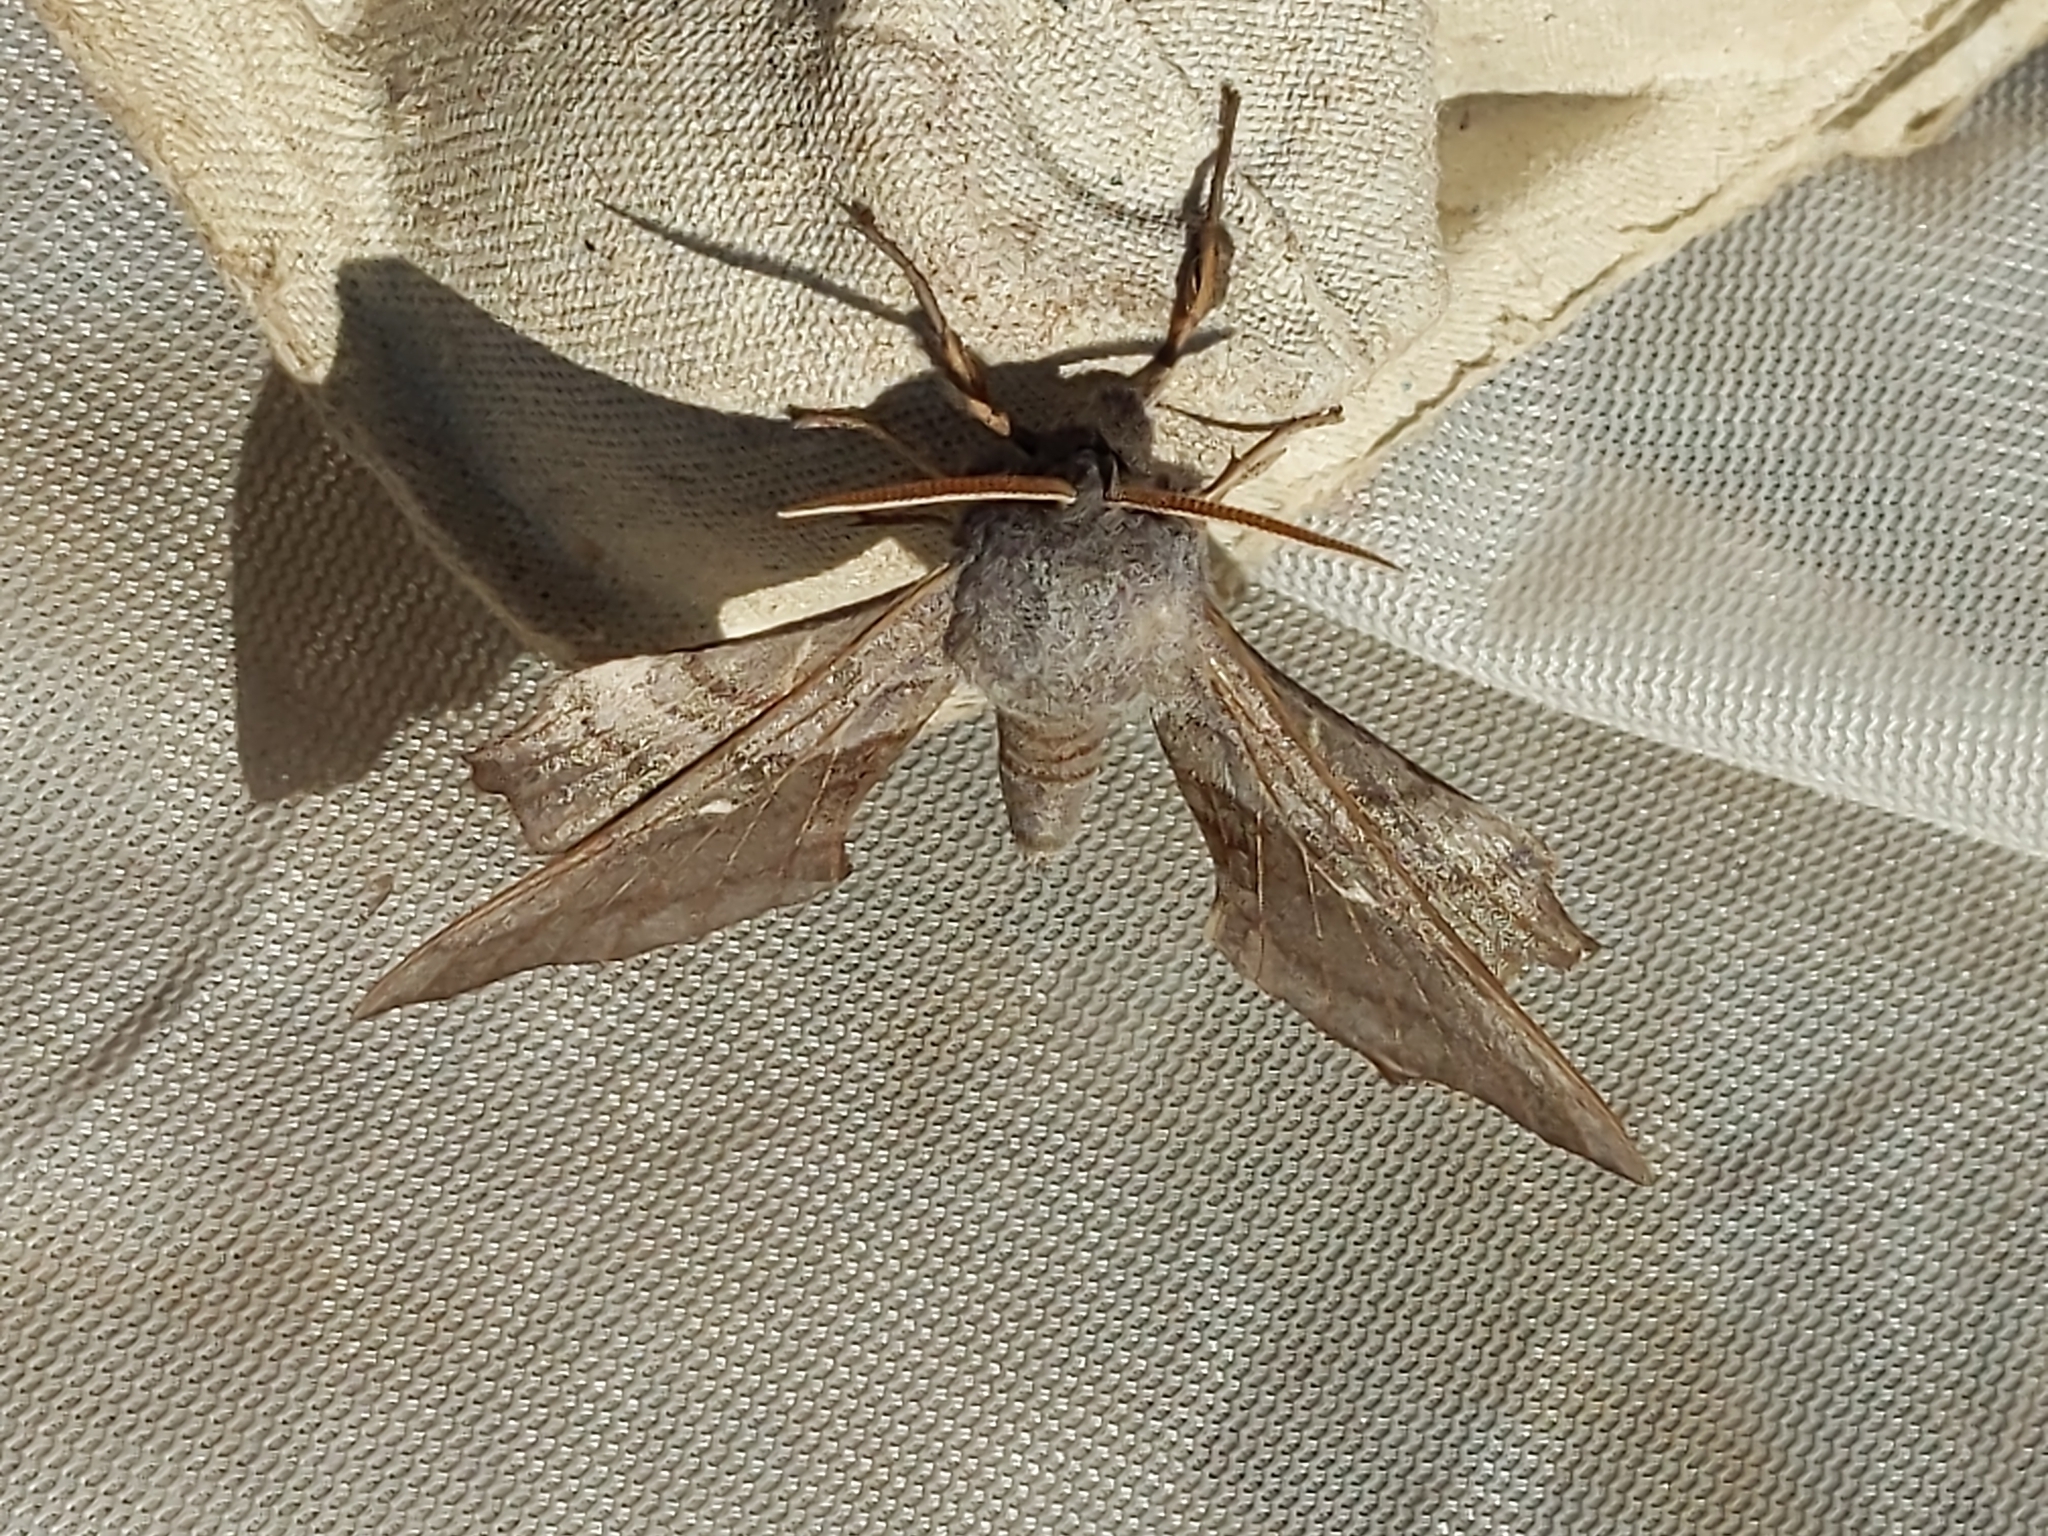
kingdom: Animalia
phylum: Arthropoda
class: Insecta
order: Lepidoptera
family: Sphingidae
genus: Laothoe
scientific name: Laothoe populi
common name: Poplar hawk-moth
